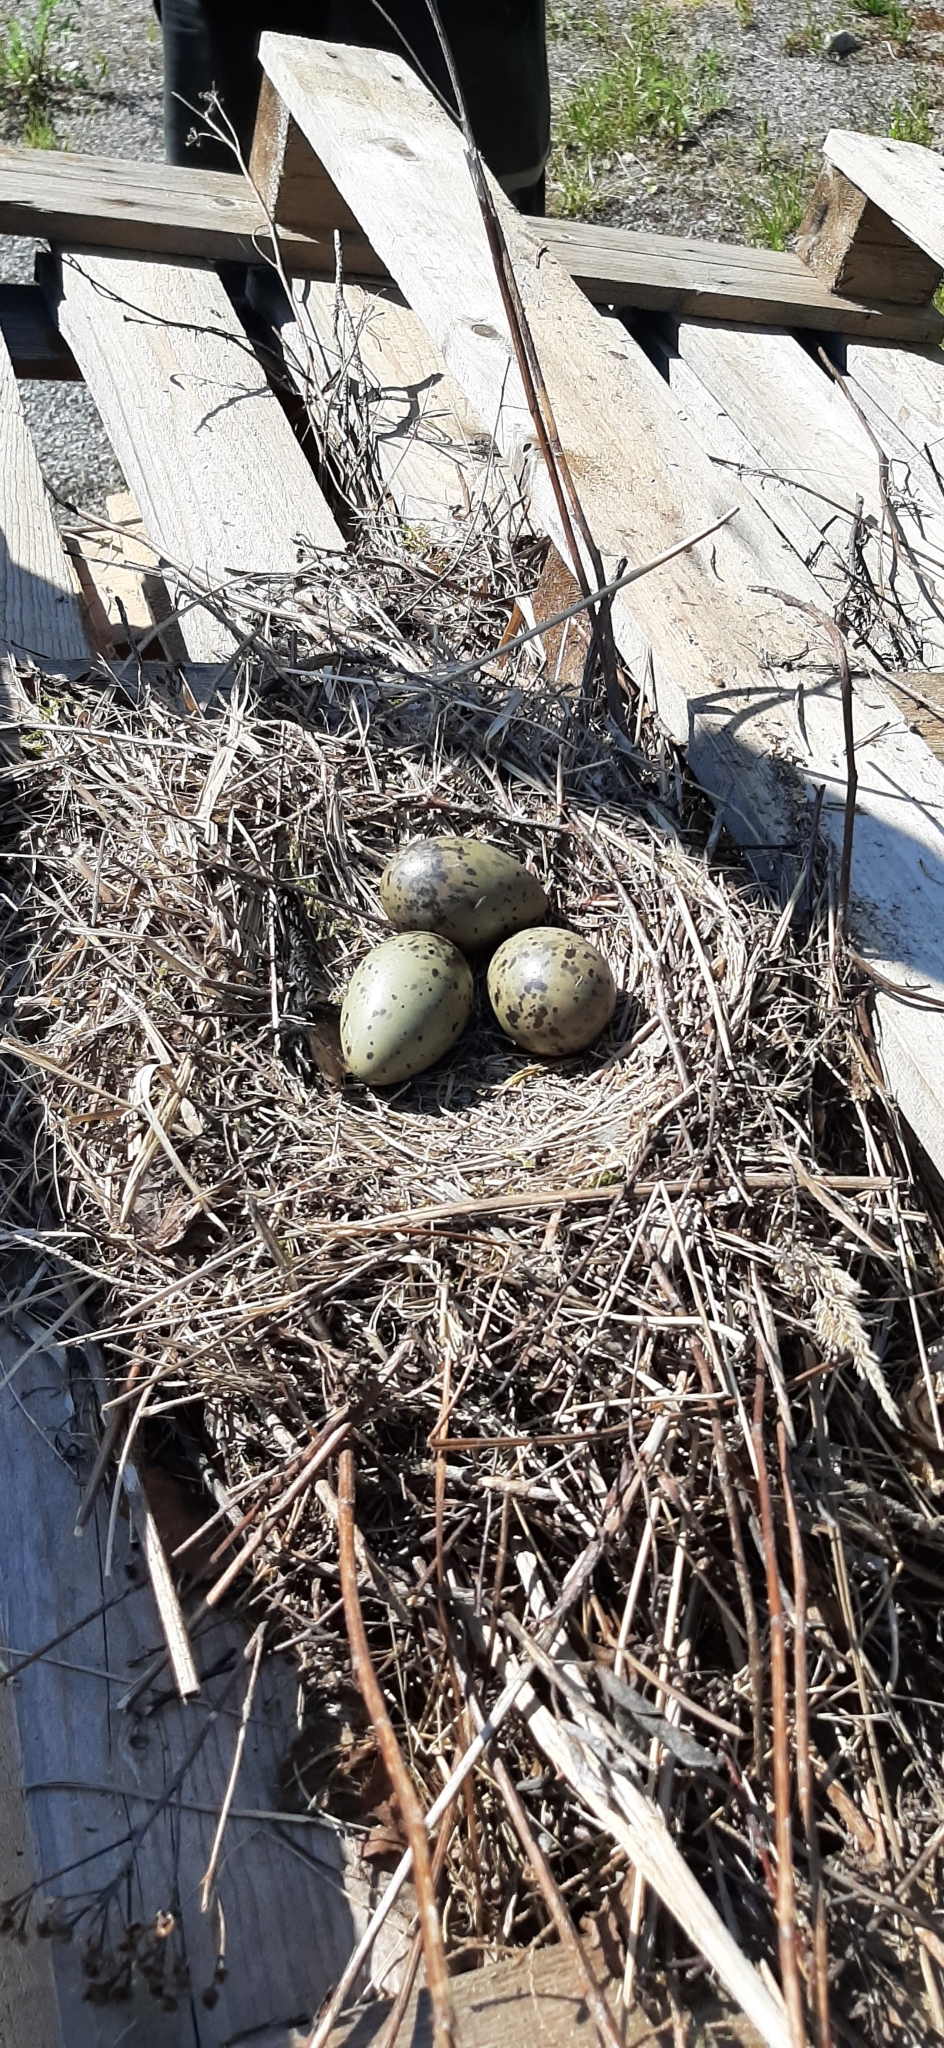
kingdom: Animalia
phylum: Chordata
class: Aves
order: Charadriiformes
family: Laridae
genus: Larus
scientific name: Larus canus
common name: Mew gull
